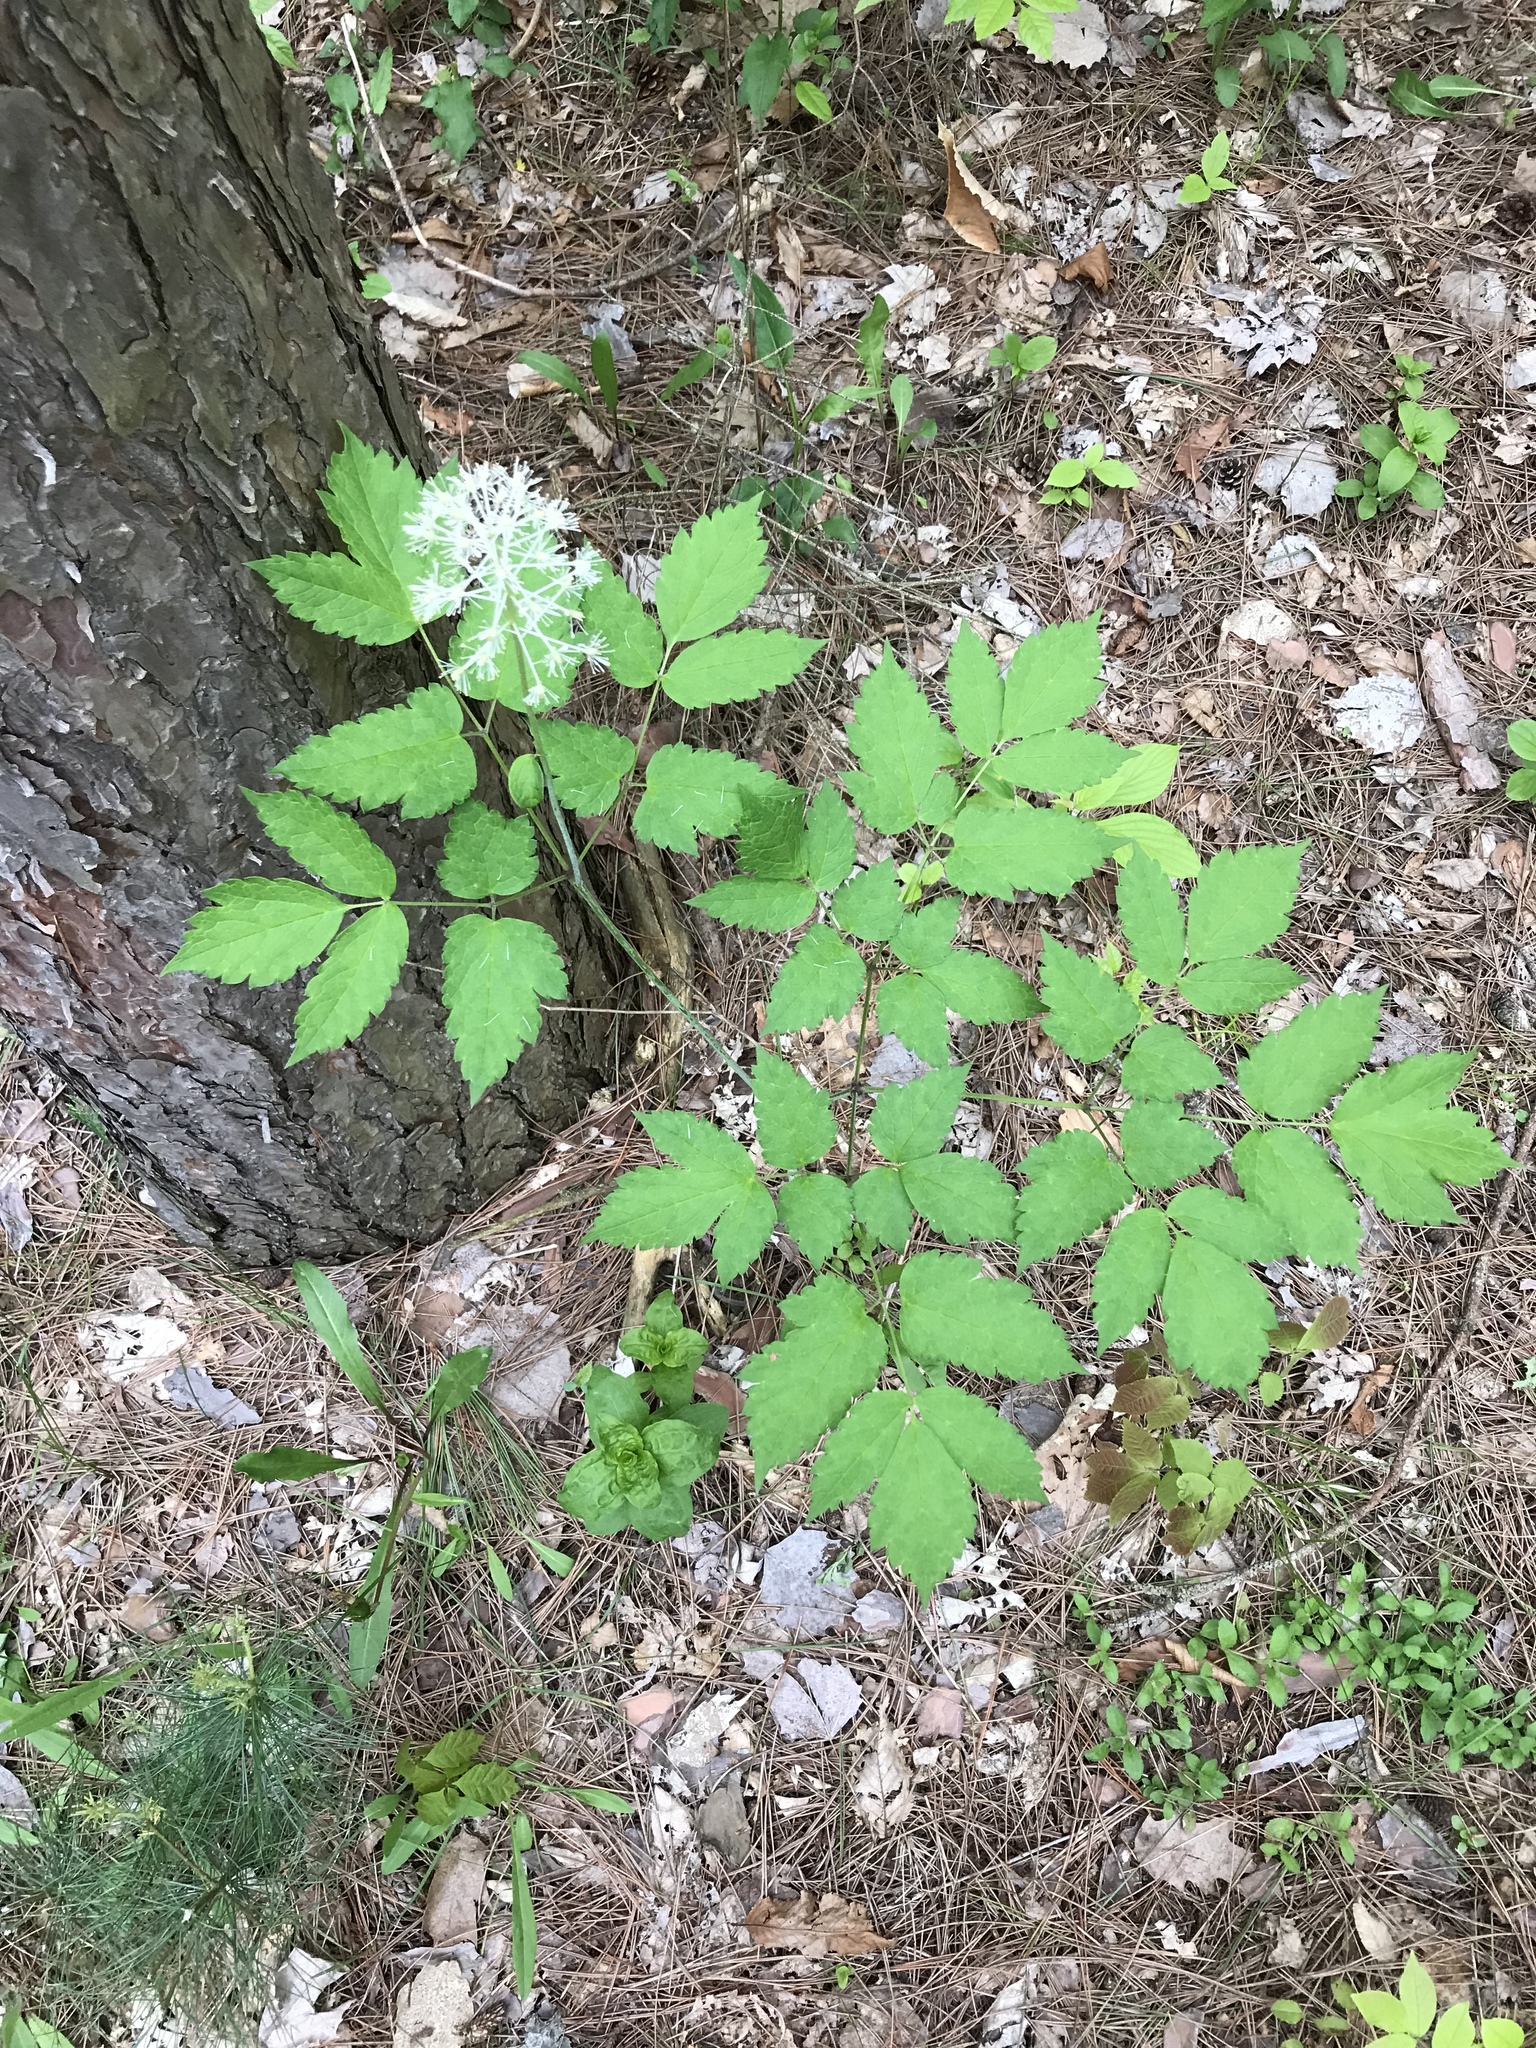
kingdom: Plantae
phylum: Tracheophyta
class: Magnoliopsida
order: Ranunculales
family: Ranunculaceae
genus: Actaea
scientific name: Actaea rubra
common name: Red baneberry
